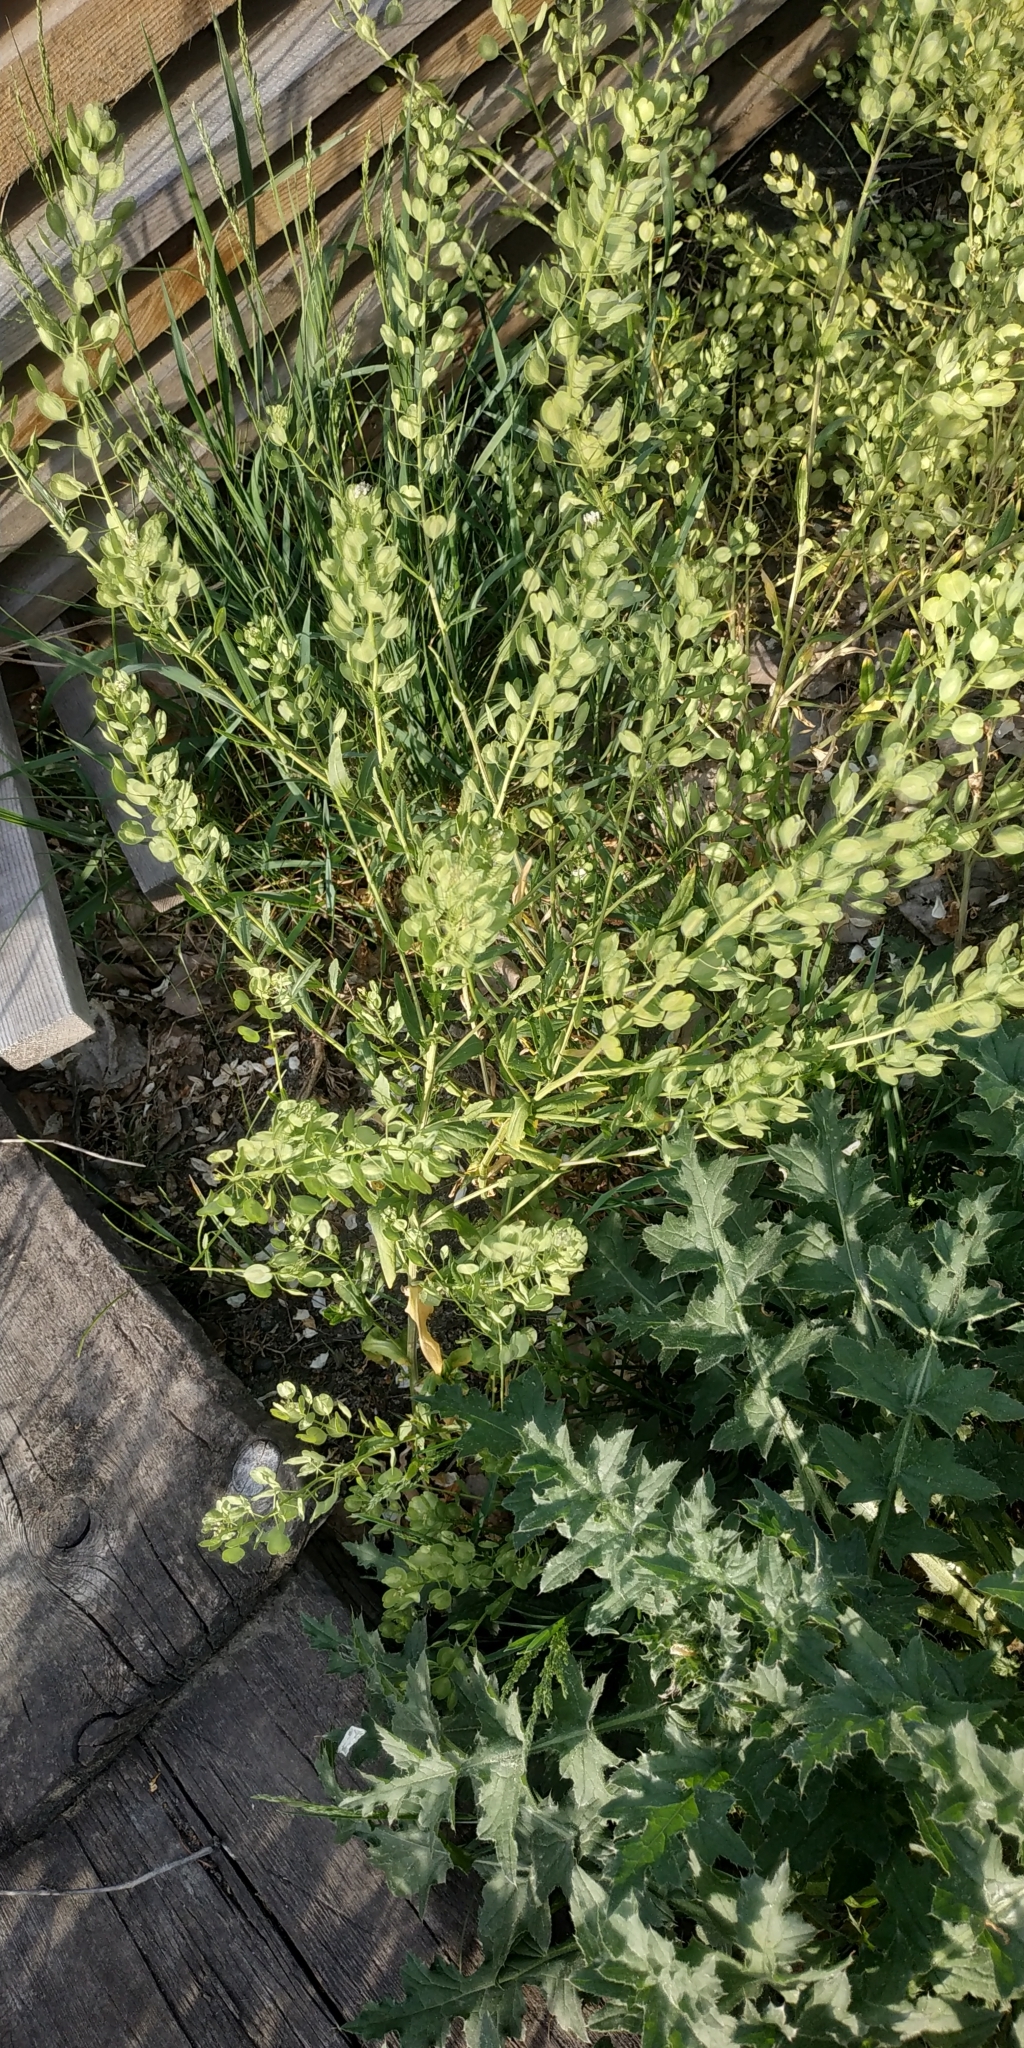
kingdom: Plantae
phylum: Tracheophyta
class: Magnoliopsida
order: Brassicales
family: Brassicaceae
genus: Thlaspi
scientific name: Thlaspi arvense
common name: Field pennycress
